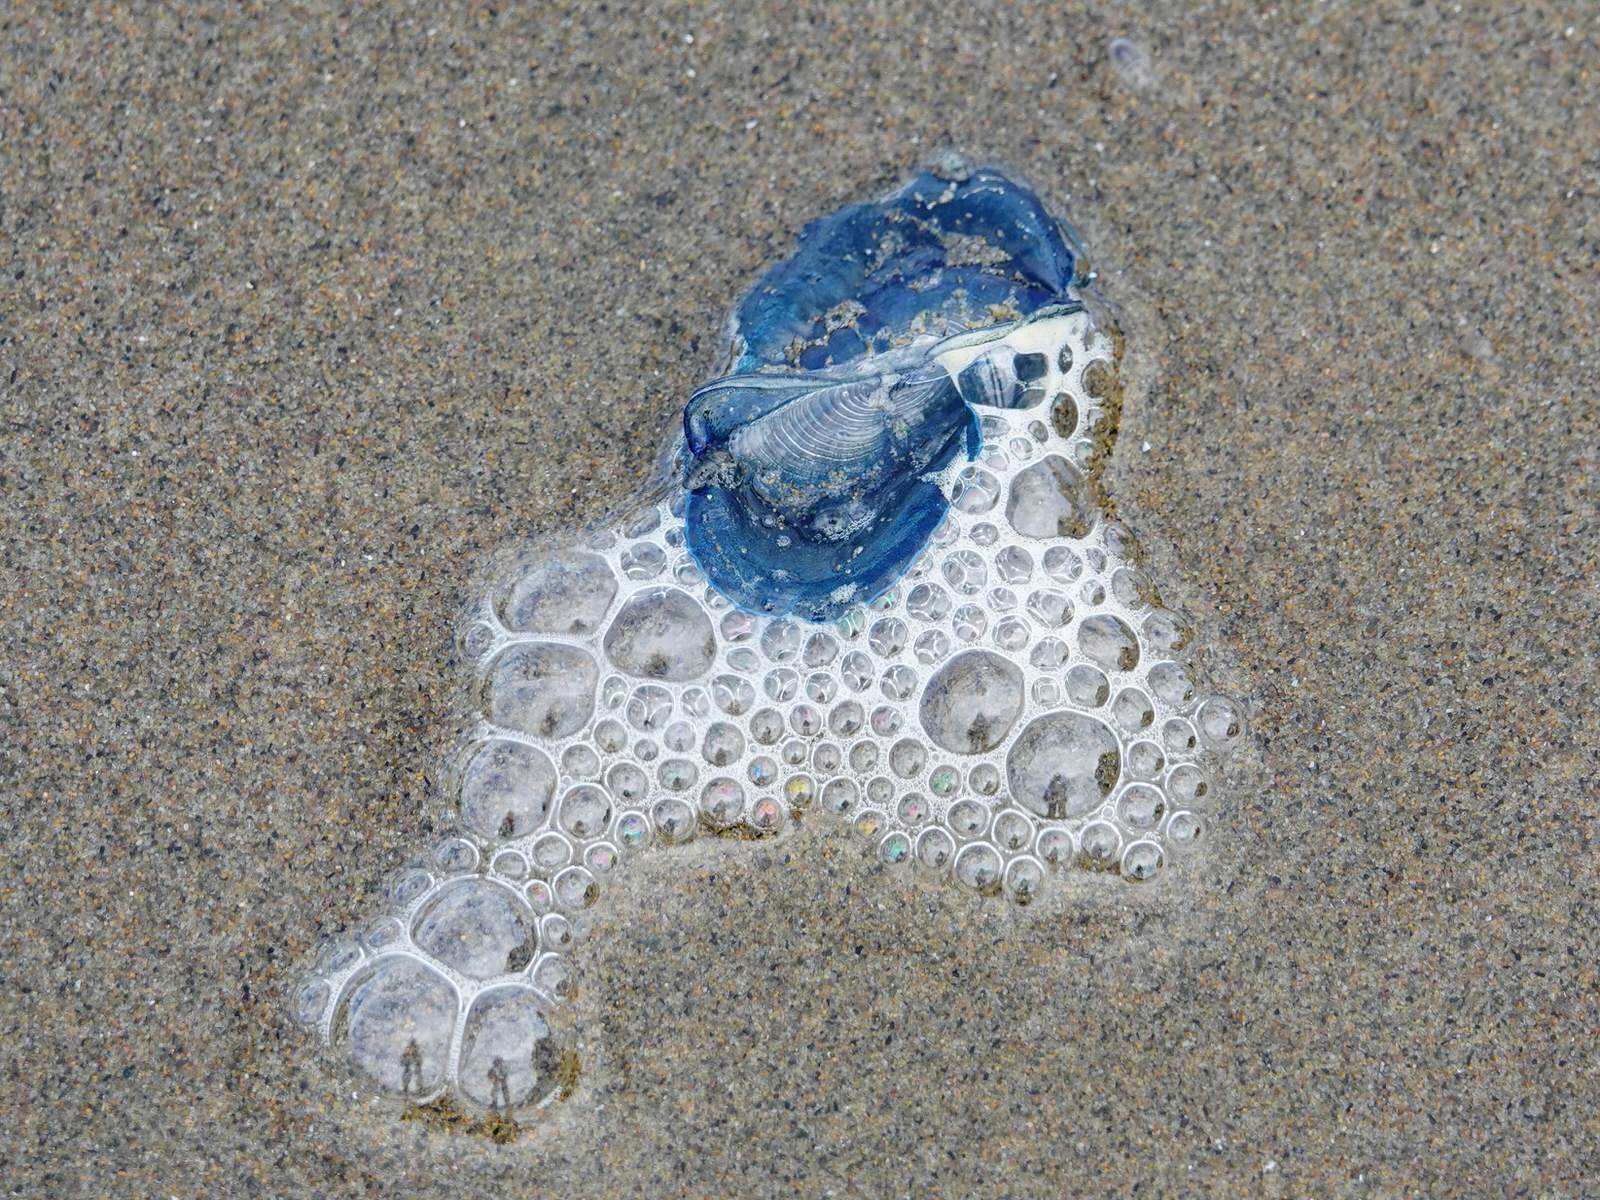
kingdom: Animalia
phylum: Cnidaria
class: Hydrozoa
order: Anthoathecata
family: Porpitidae
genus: Velella
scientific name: Velella velella
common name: By-the-wind-sailor
